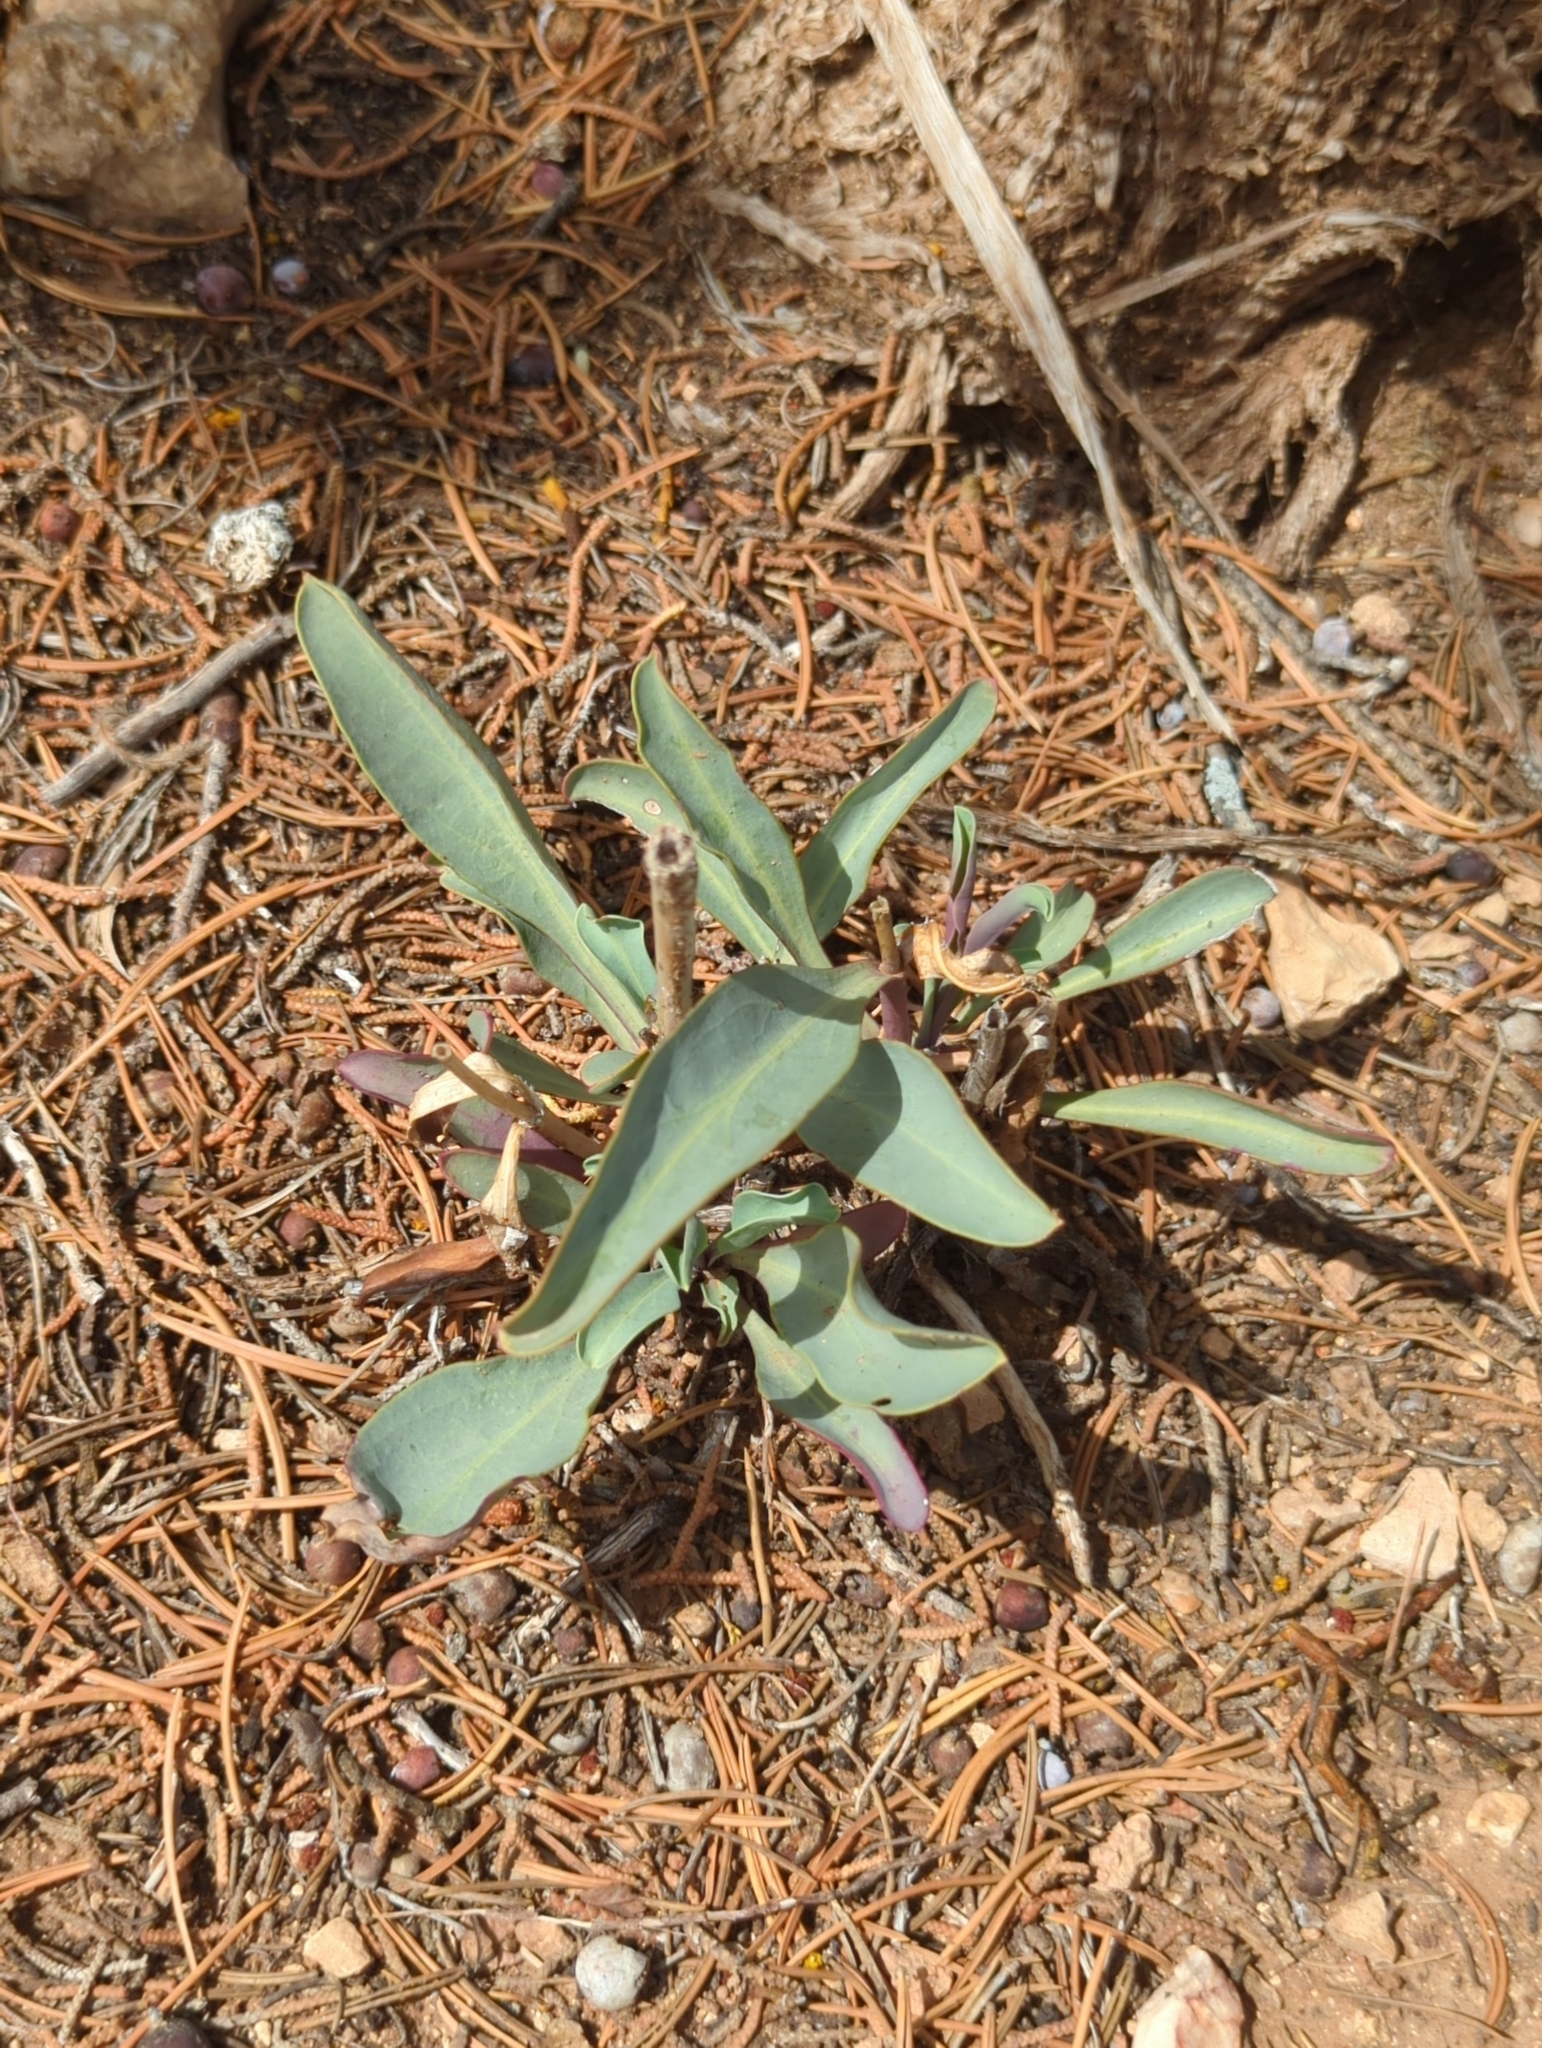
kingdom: Plantae
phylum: Tracheophyta
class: Magnoliopsida
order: Lamiales
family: Plantaginaceae
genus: Penstemon
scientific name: Penstemon pachyphyllus
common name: Thick-leaf penstemon
